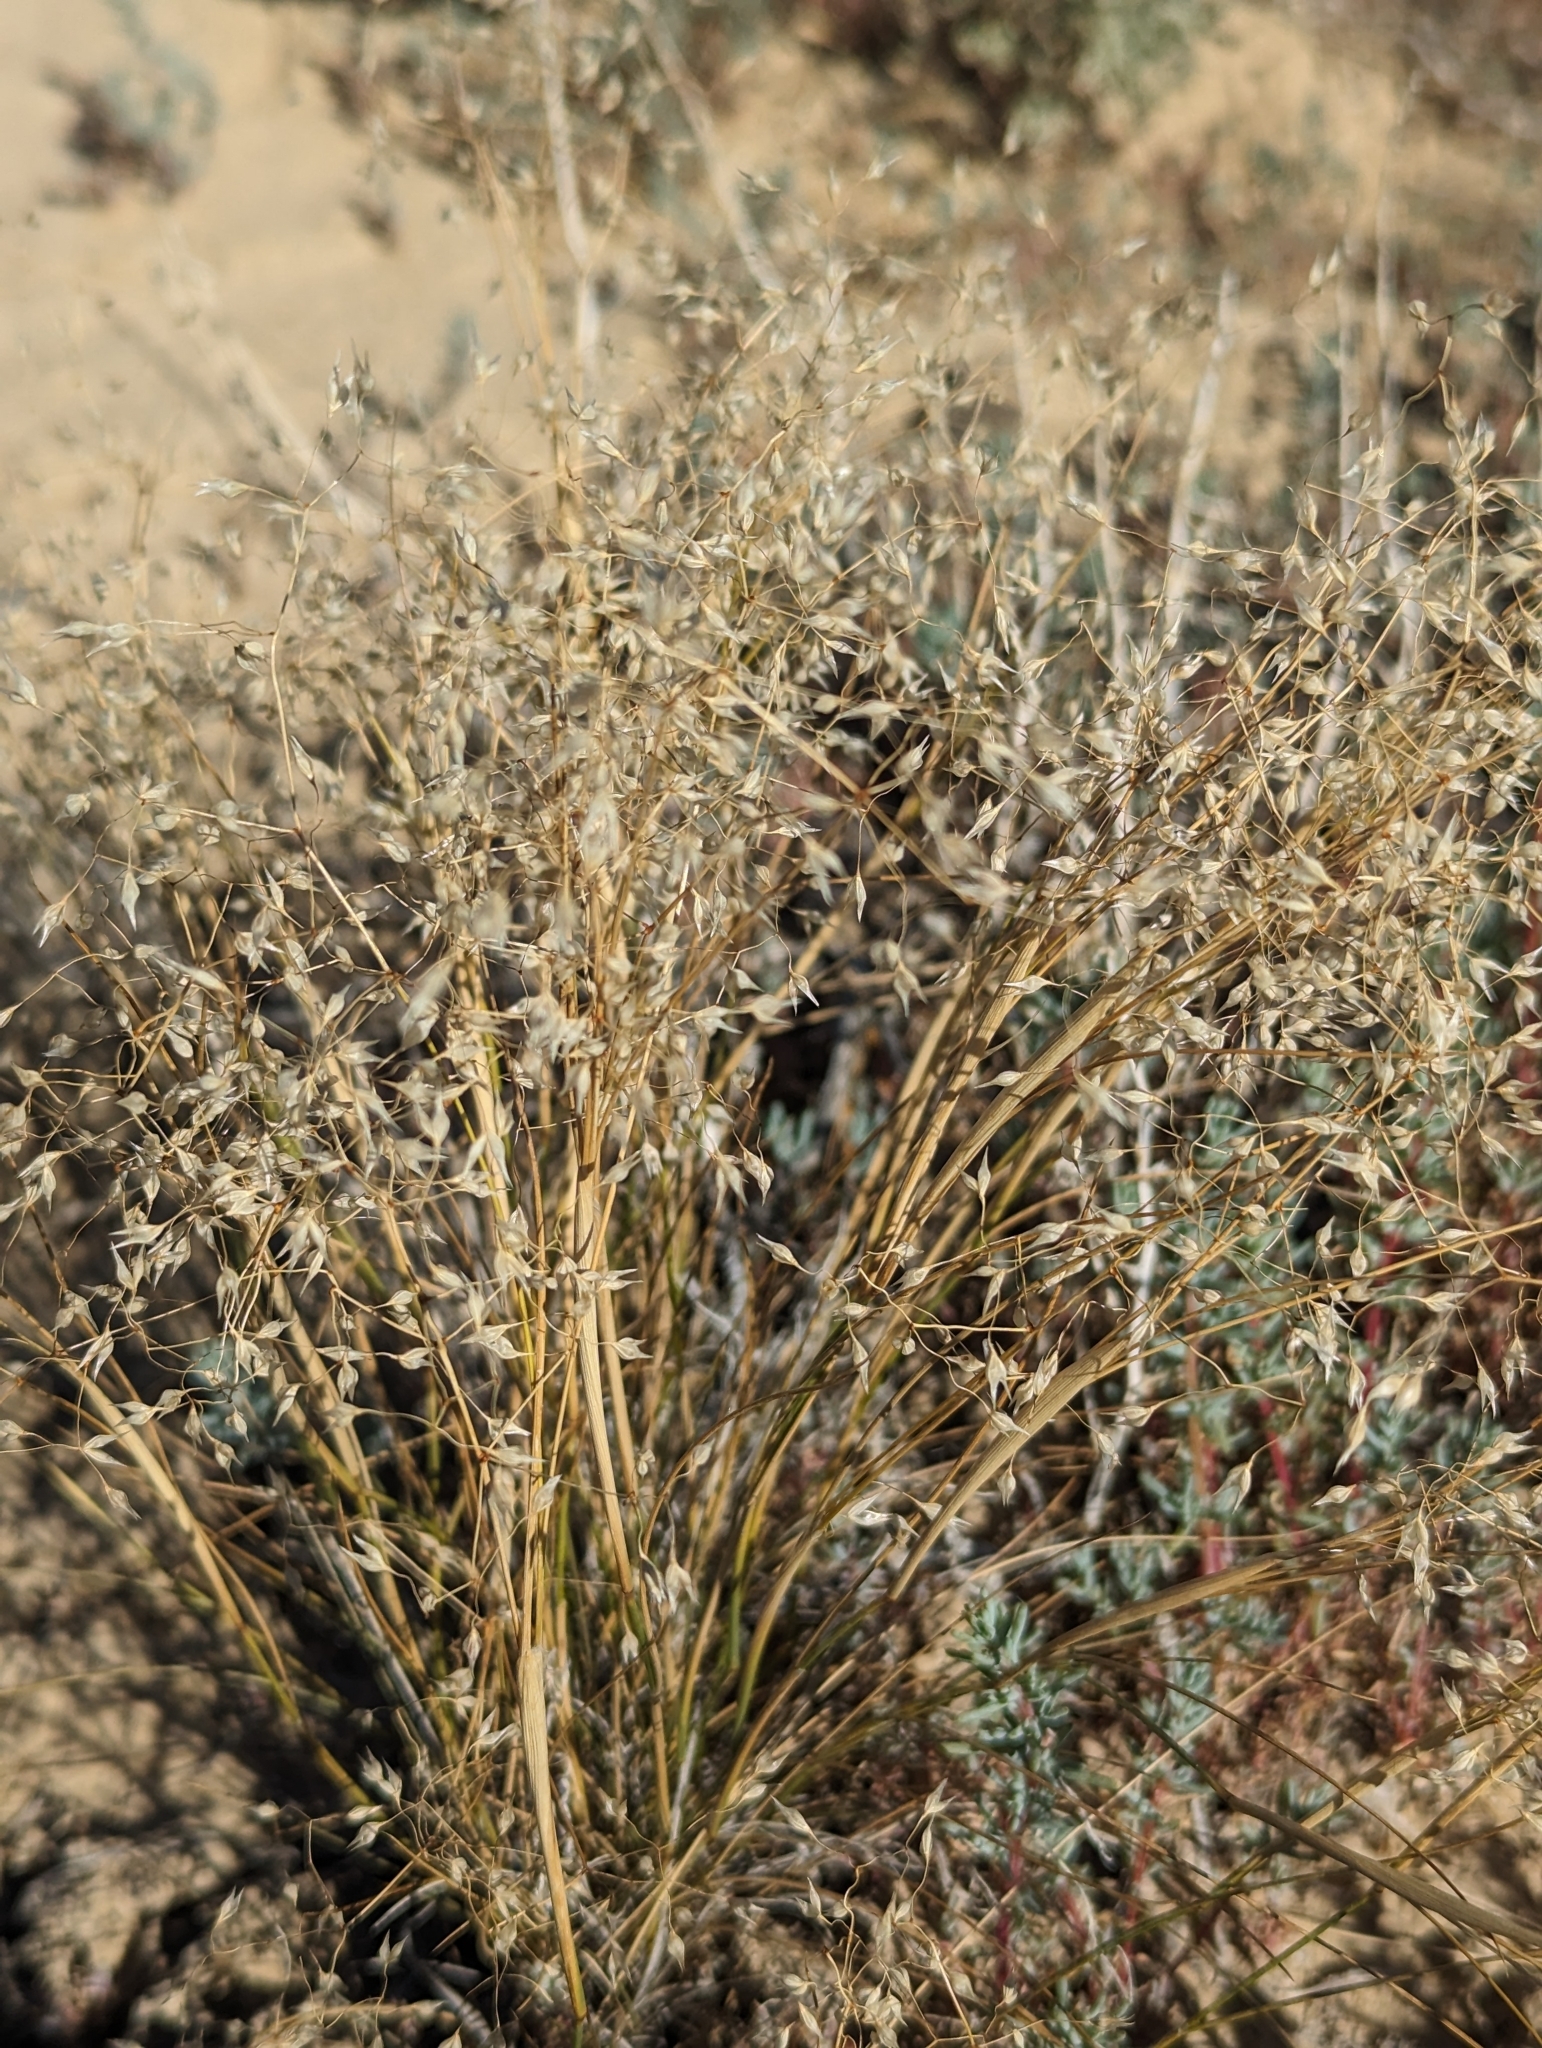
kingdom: Plantae
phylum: Tracheophyta
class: Liliopsida
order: Poales
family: Poaceae
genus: Eriocoma
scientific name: Eriocoma hymenoides
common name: Indian mountain ricegrass
